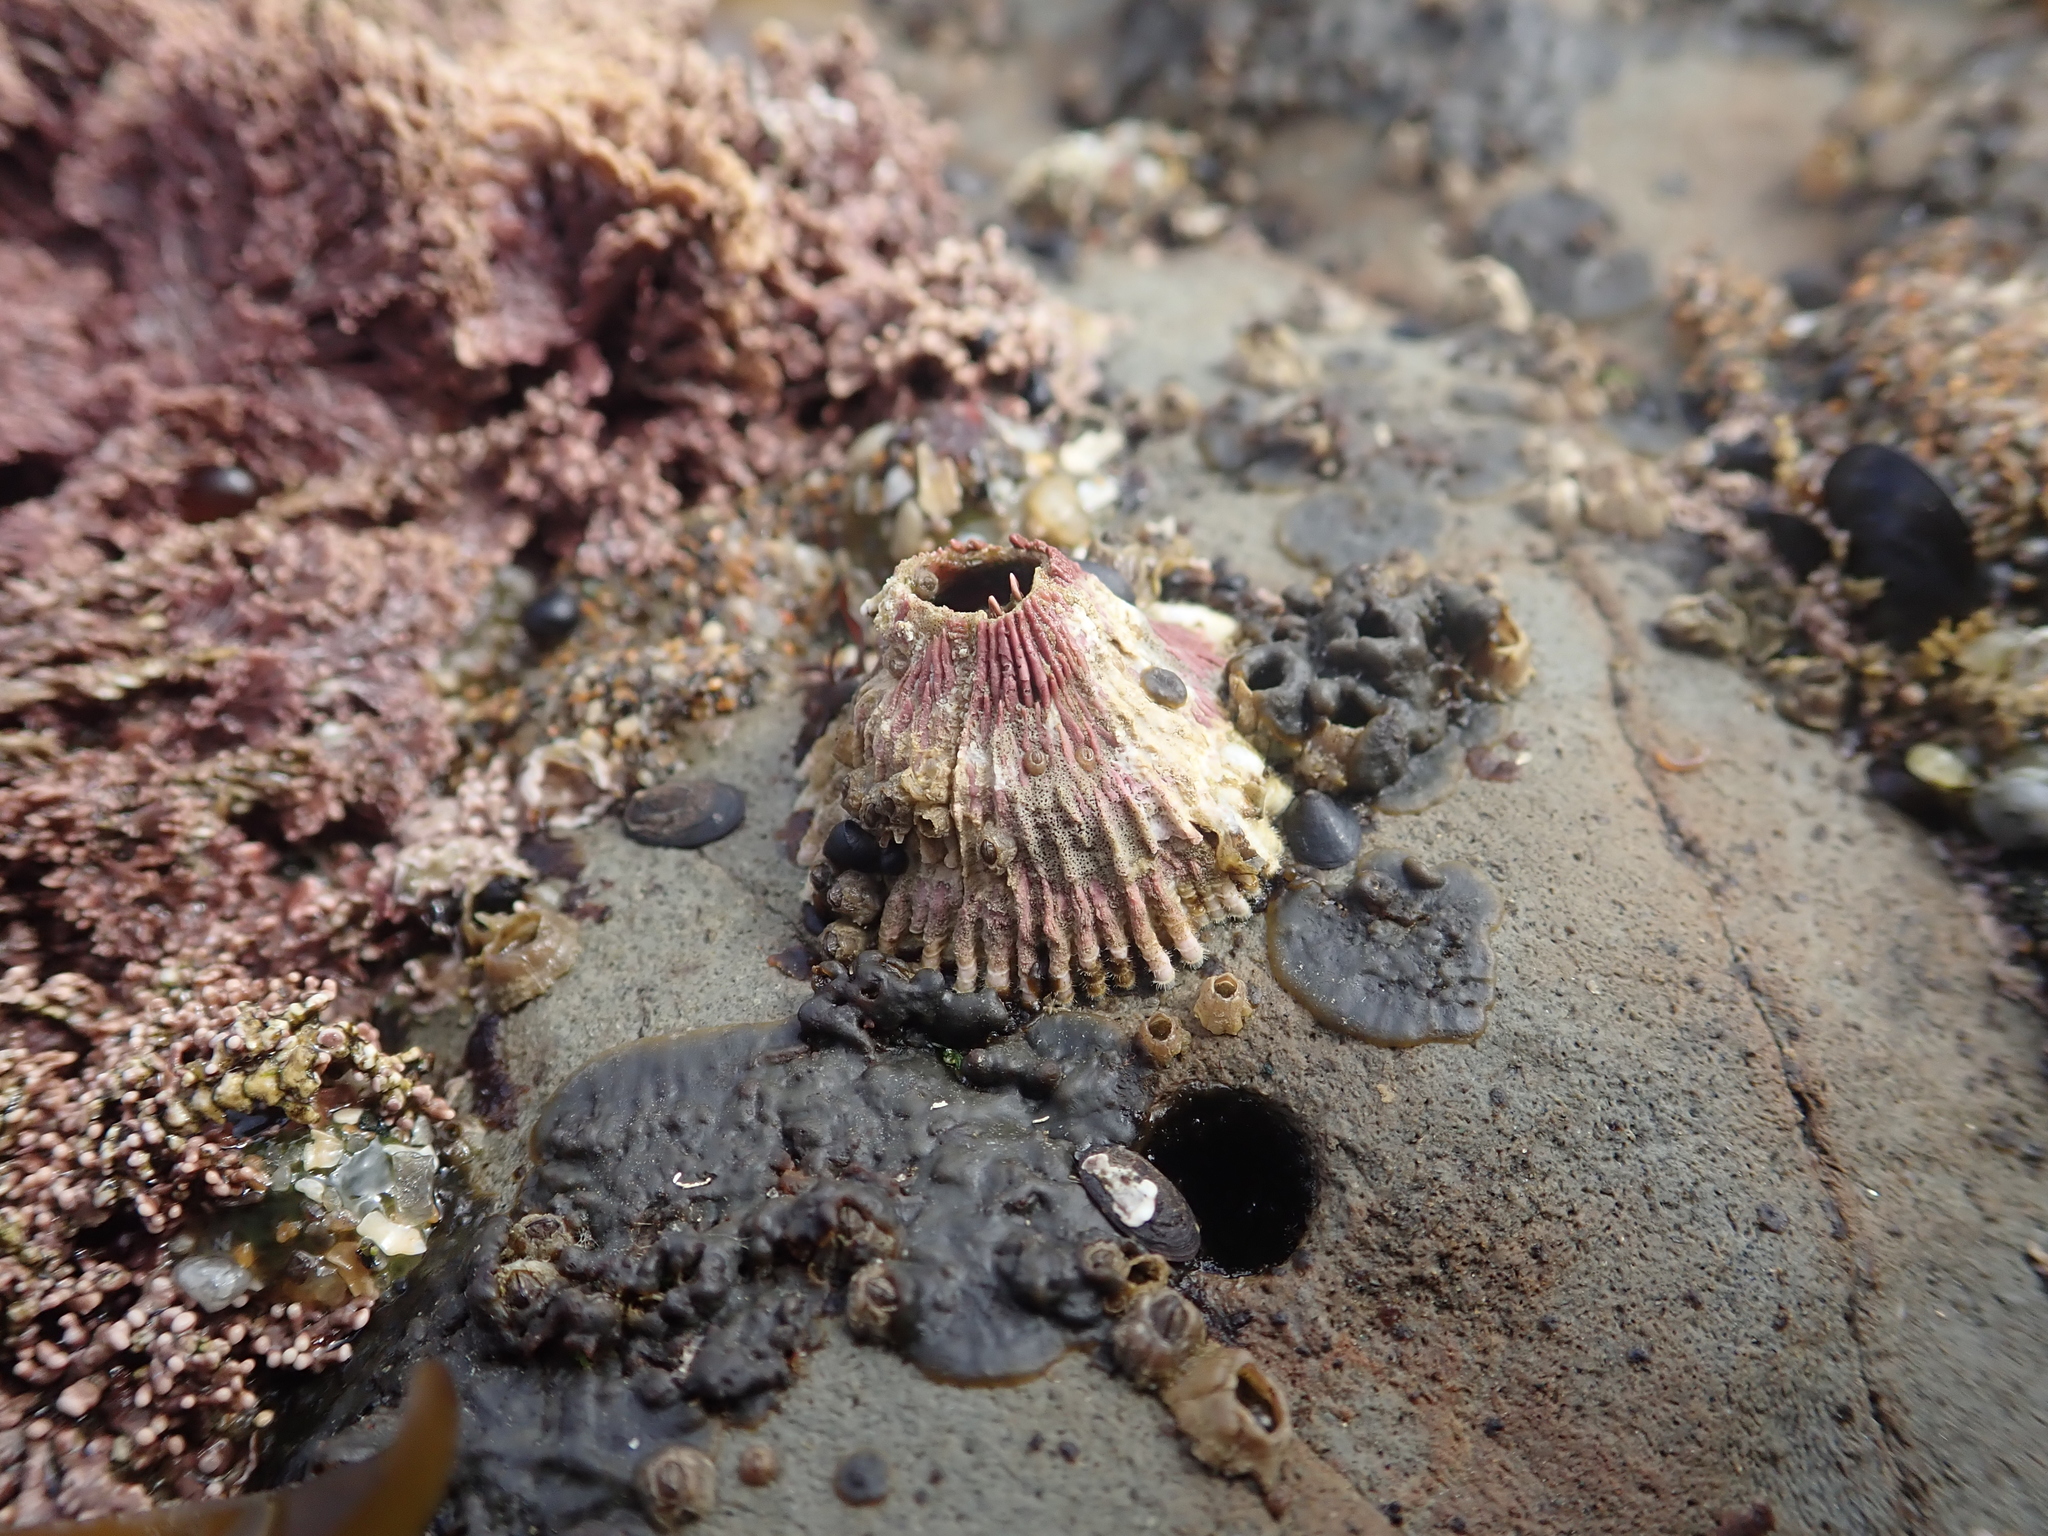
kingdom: Animalia
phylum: Arthropoda
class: Maxillopoda
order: Sessilia
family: Tetraclitidae
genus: Tetraclita
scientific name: Tetraclita rubescens
